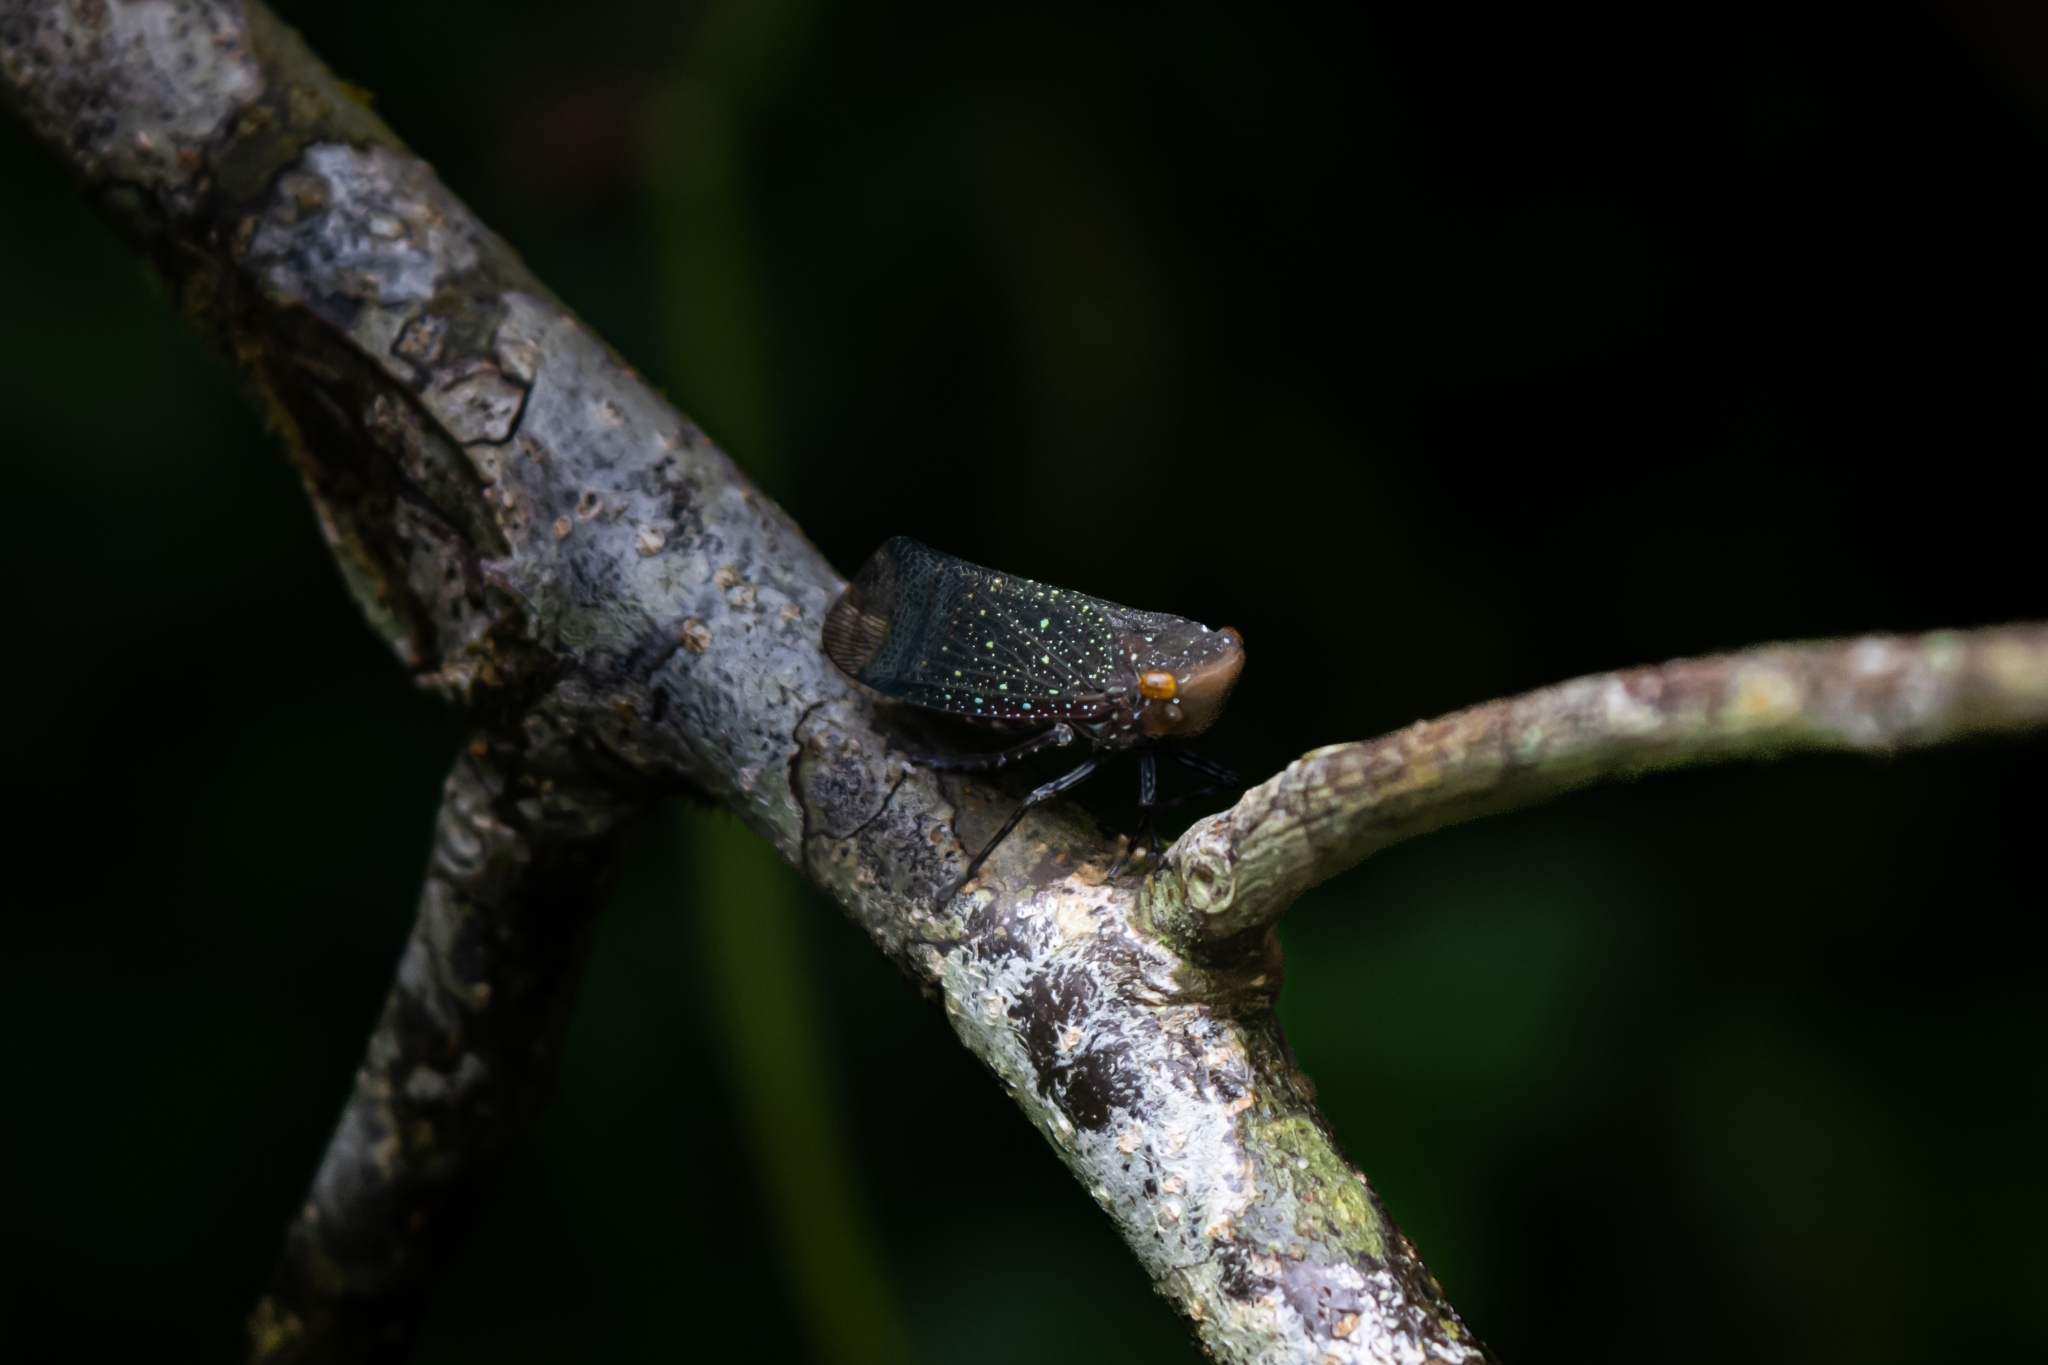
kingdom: Animalia
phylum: Arthropoda
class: Insecta
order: Hemiptera
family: Fulgoridae
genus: Acmonia
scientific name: Acmonia amabilis
